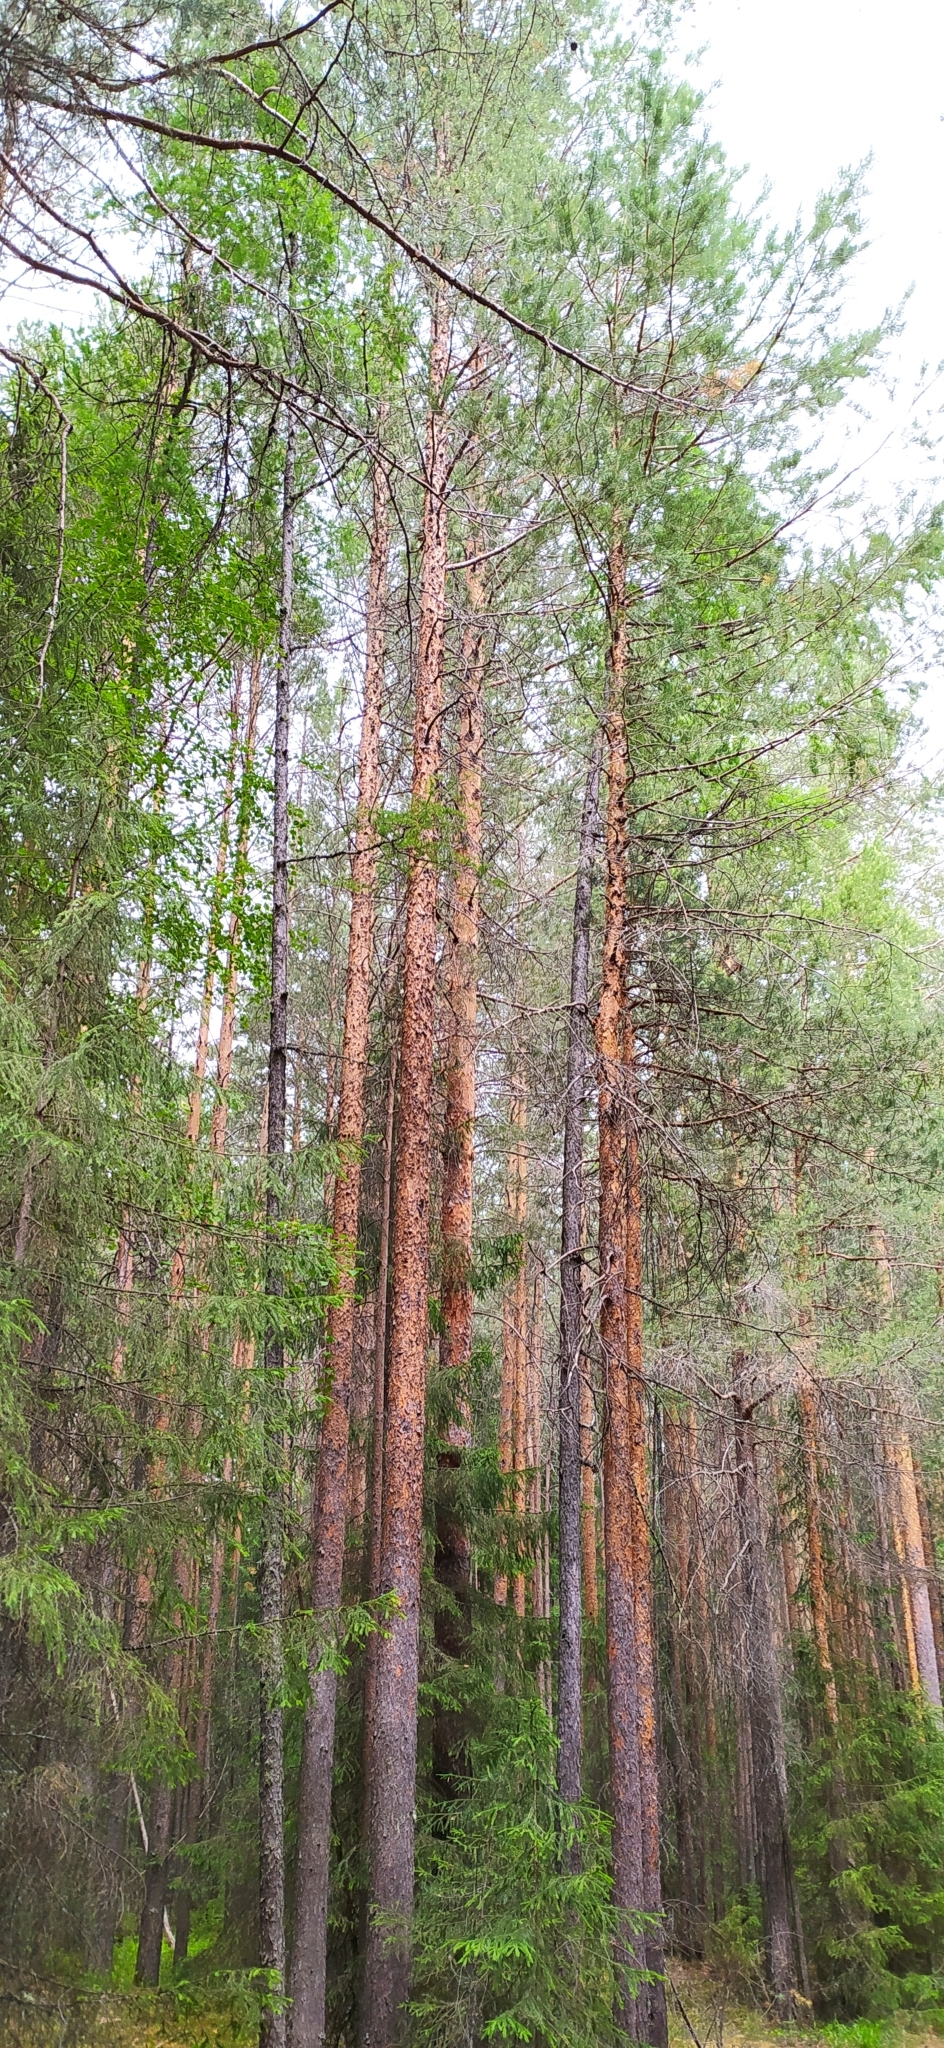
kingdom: Plantae
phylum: Tracheophyta
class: Pinopsida
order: Pinales
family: Pinaceae
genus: Pinus
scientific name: Pinus sylvestris
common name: Scots pine
